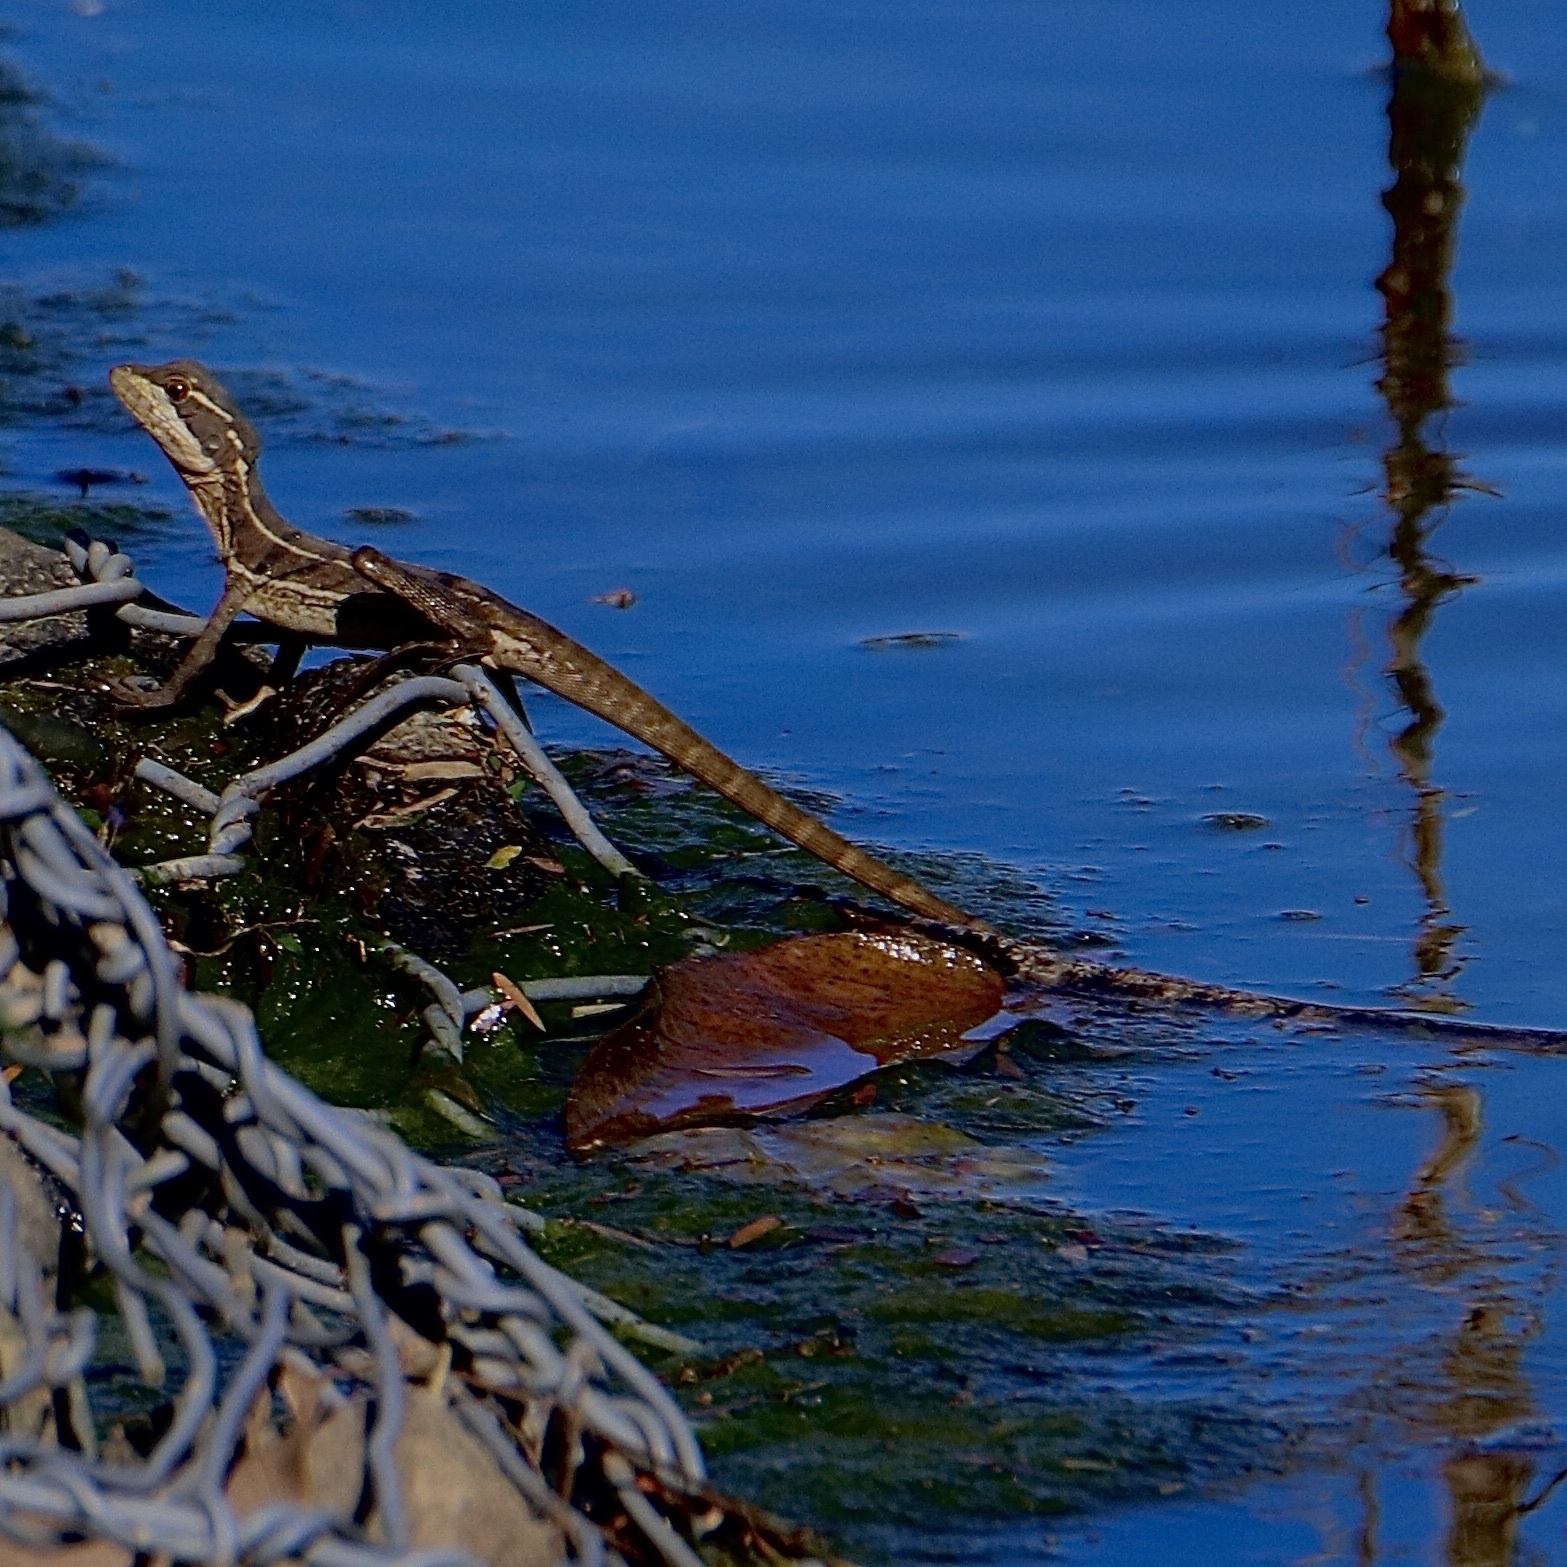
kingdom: Animalia
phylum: Chordata
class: Squamata
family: Corytophanidae
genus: Basiliscus
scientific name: Basiliscus basiliscus
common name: Common basilisk
